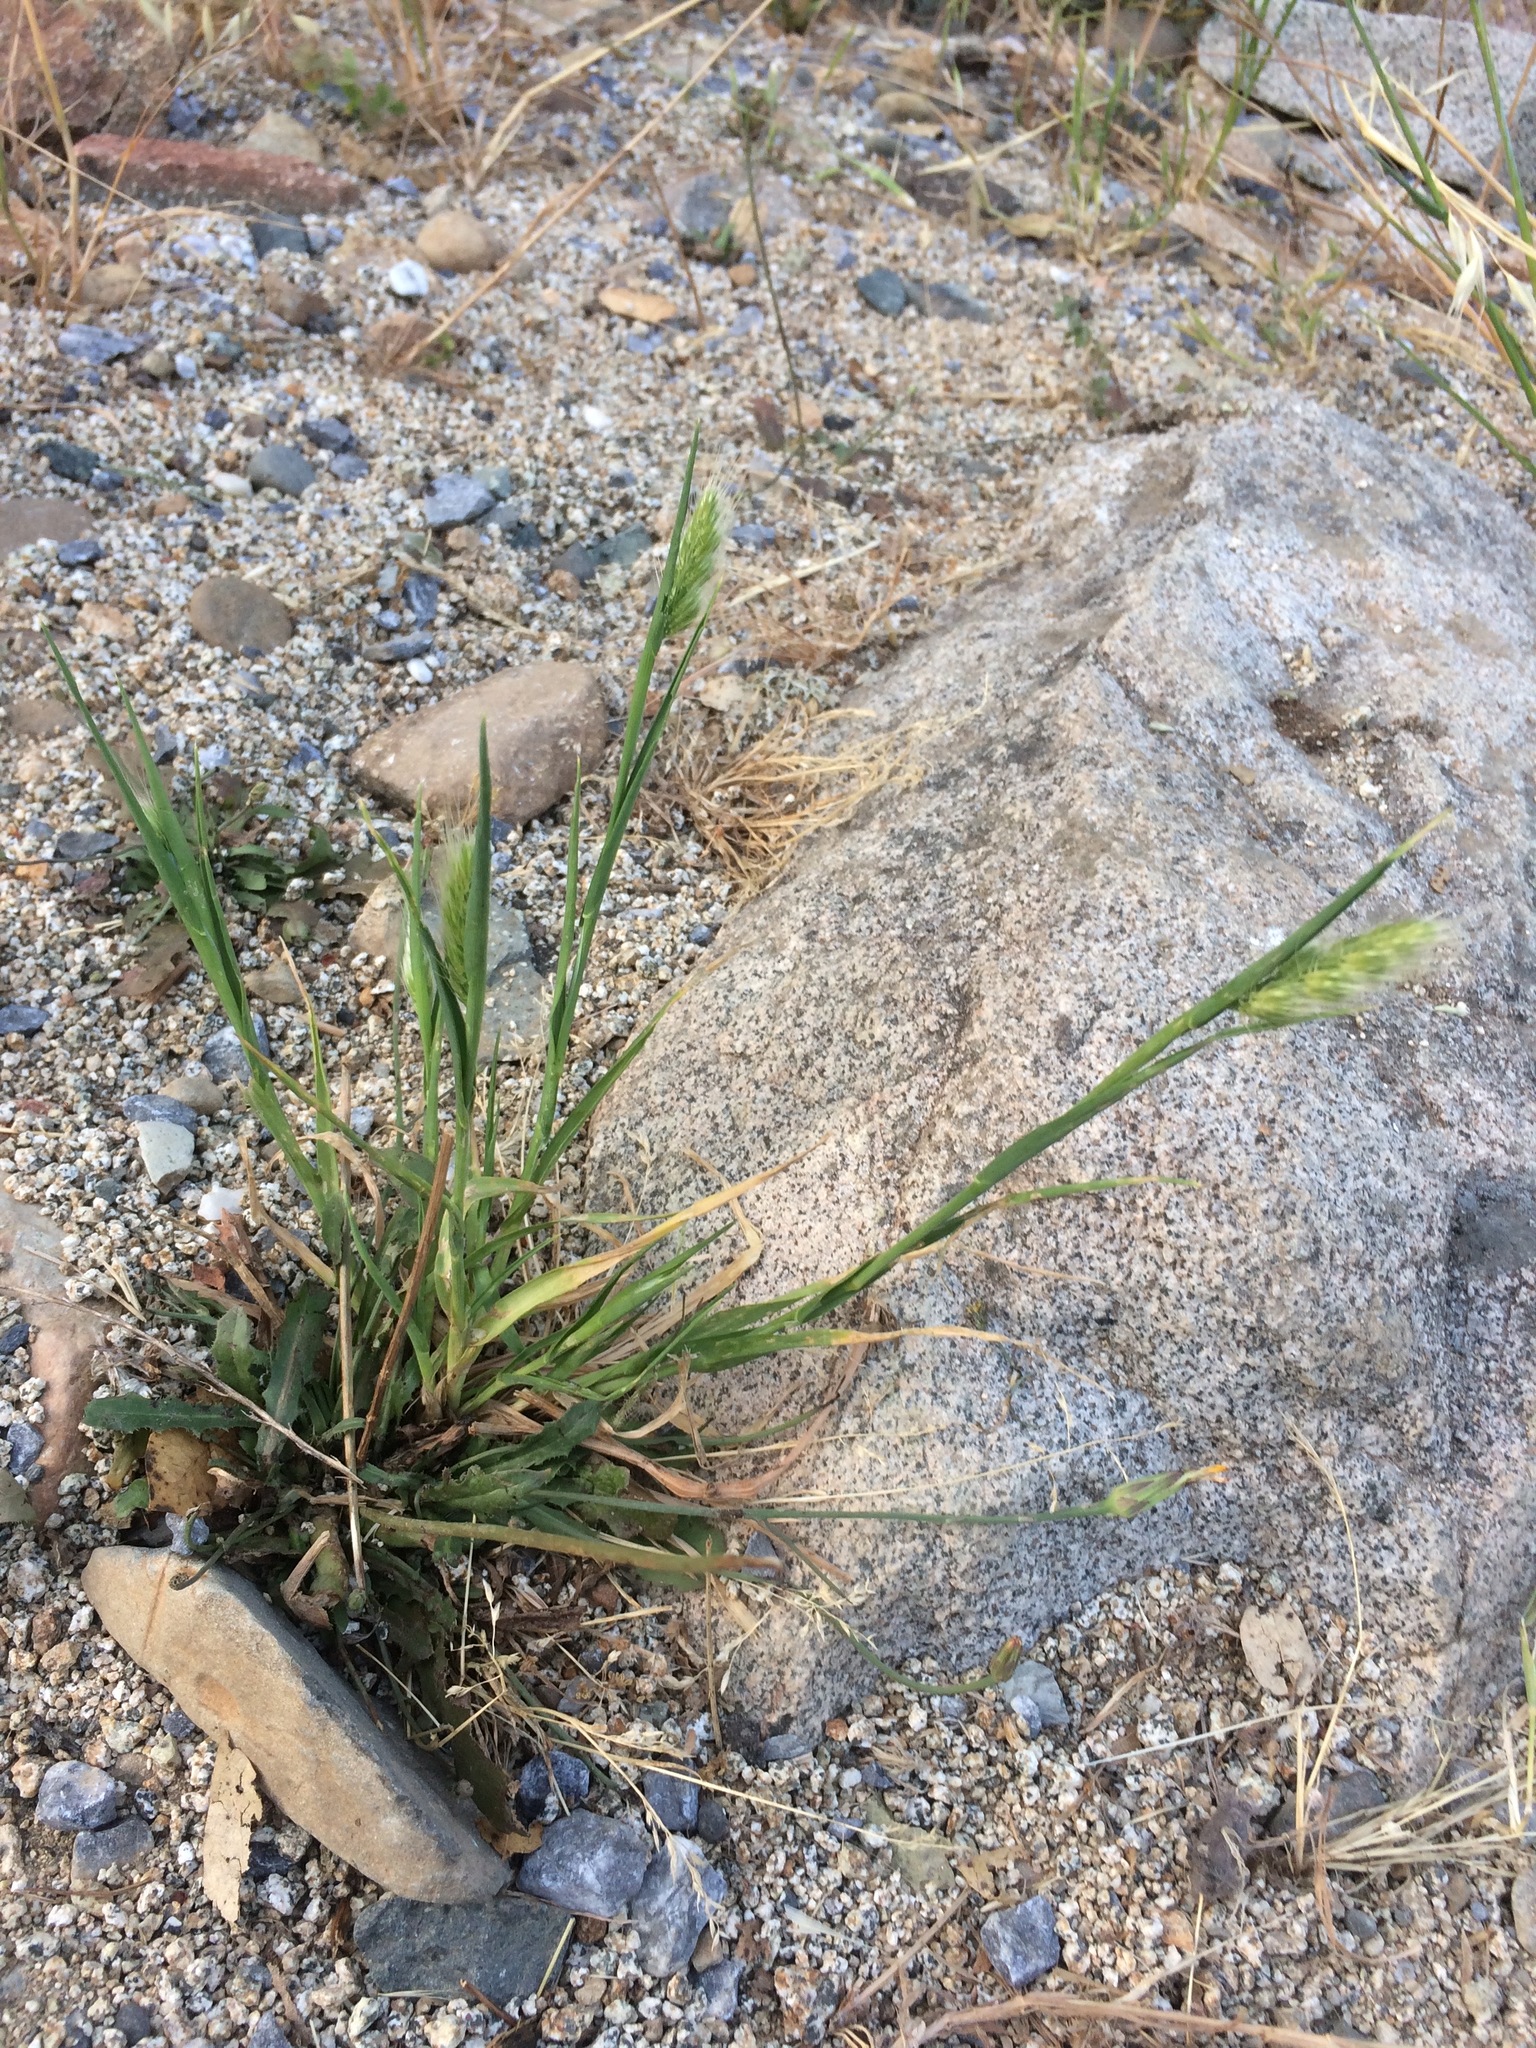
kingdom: Plantae
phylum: Tracheophyta
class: Liliopsida
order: Poales
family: Poaceae
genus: Cynosurus
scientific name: Cynosurus echinatus
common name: Rough dog's-tail
